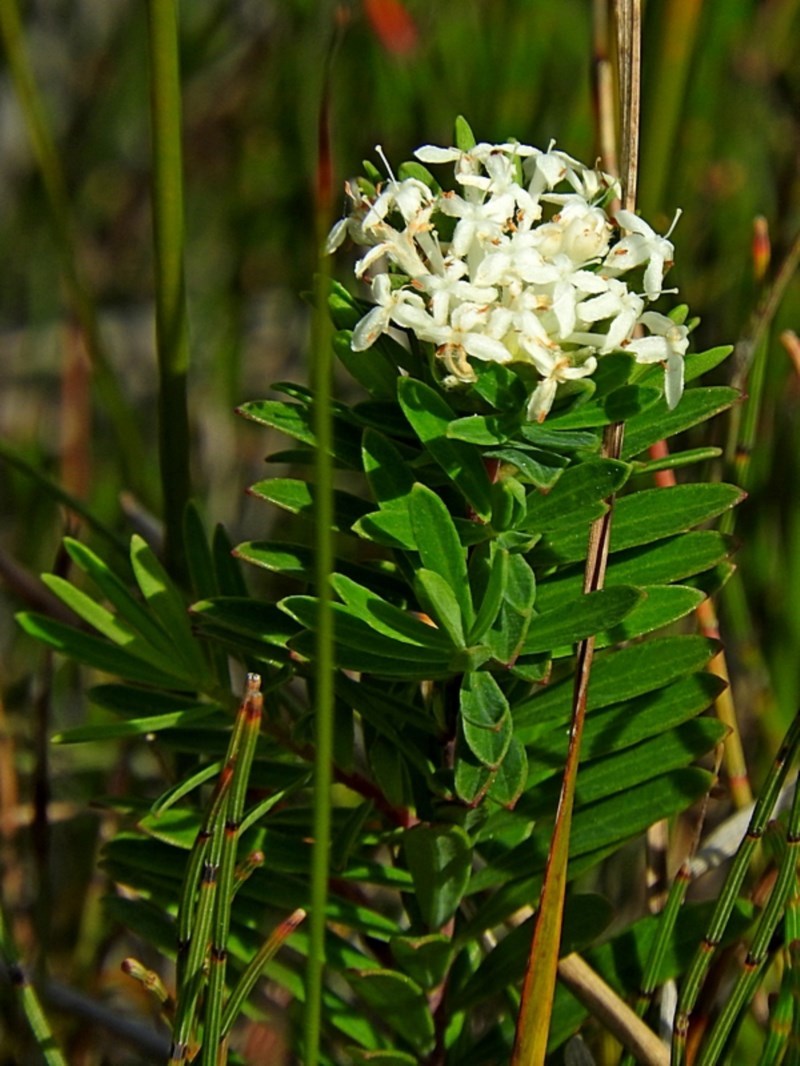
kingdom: Plantae
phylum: Tracheophyta
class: Magnoliopsida
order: Malvales
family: Thymelaeaceae
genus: Pimelea
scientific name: Pimelea linifolia
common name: Queen-of-the-bush
